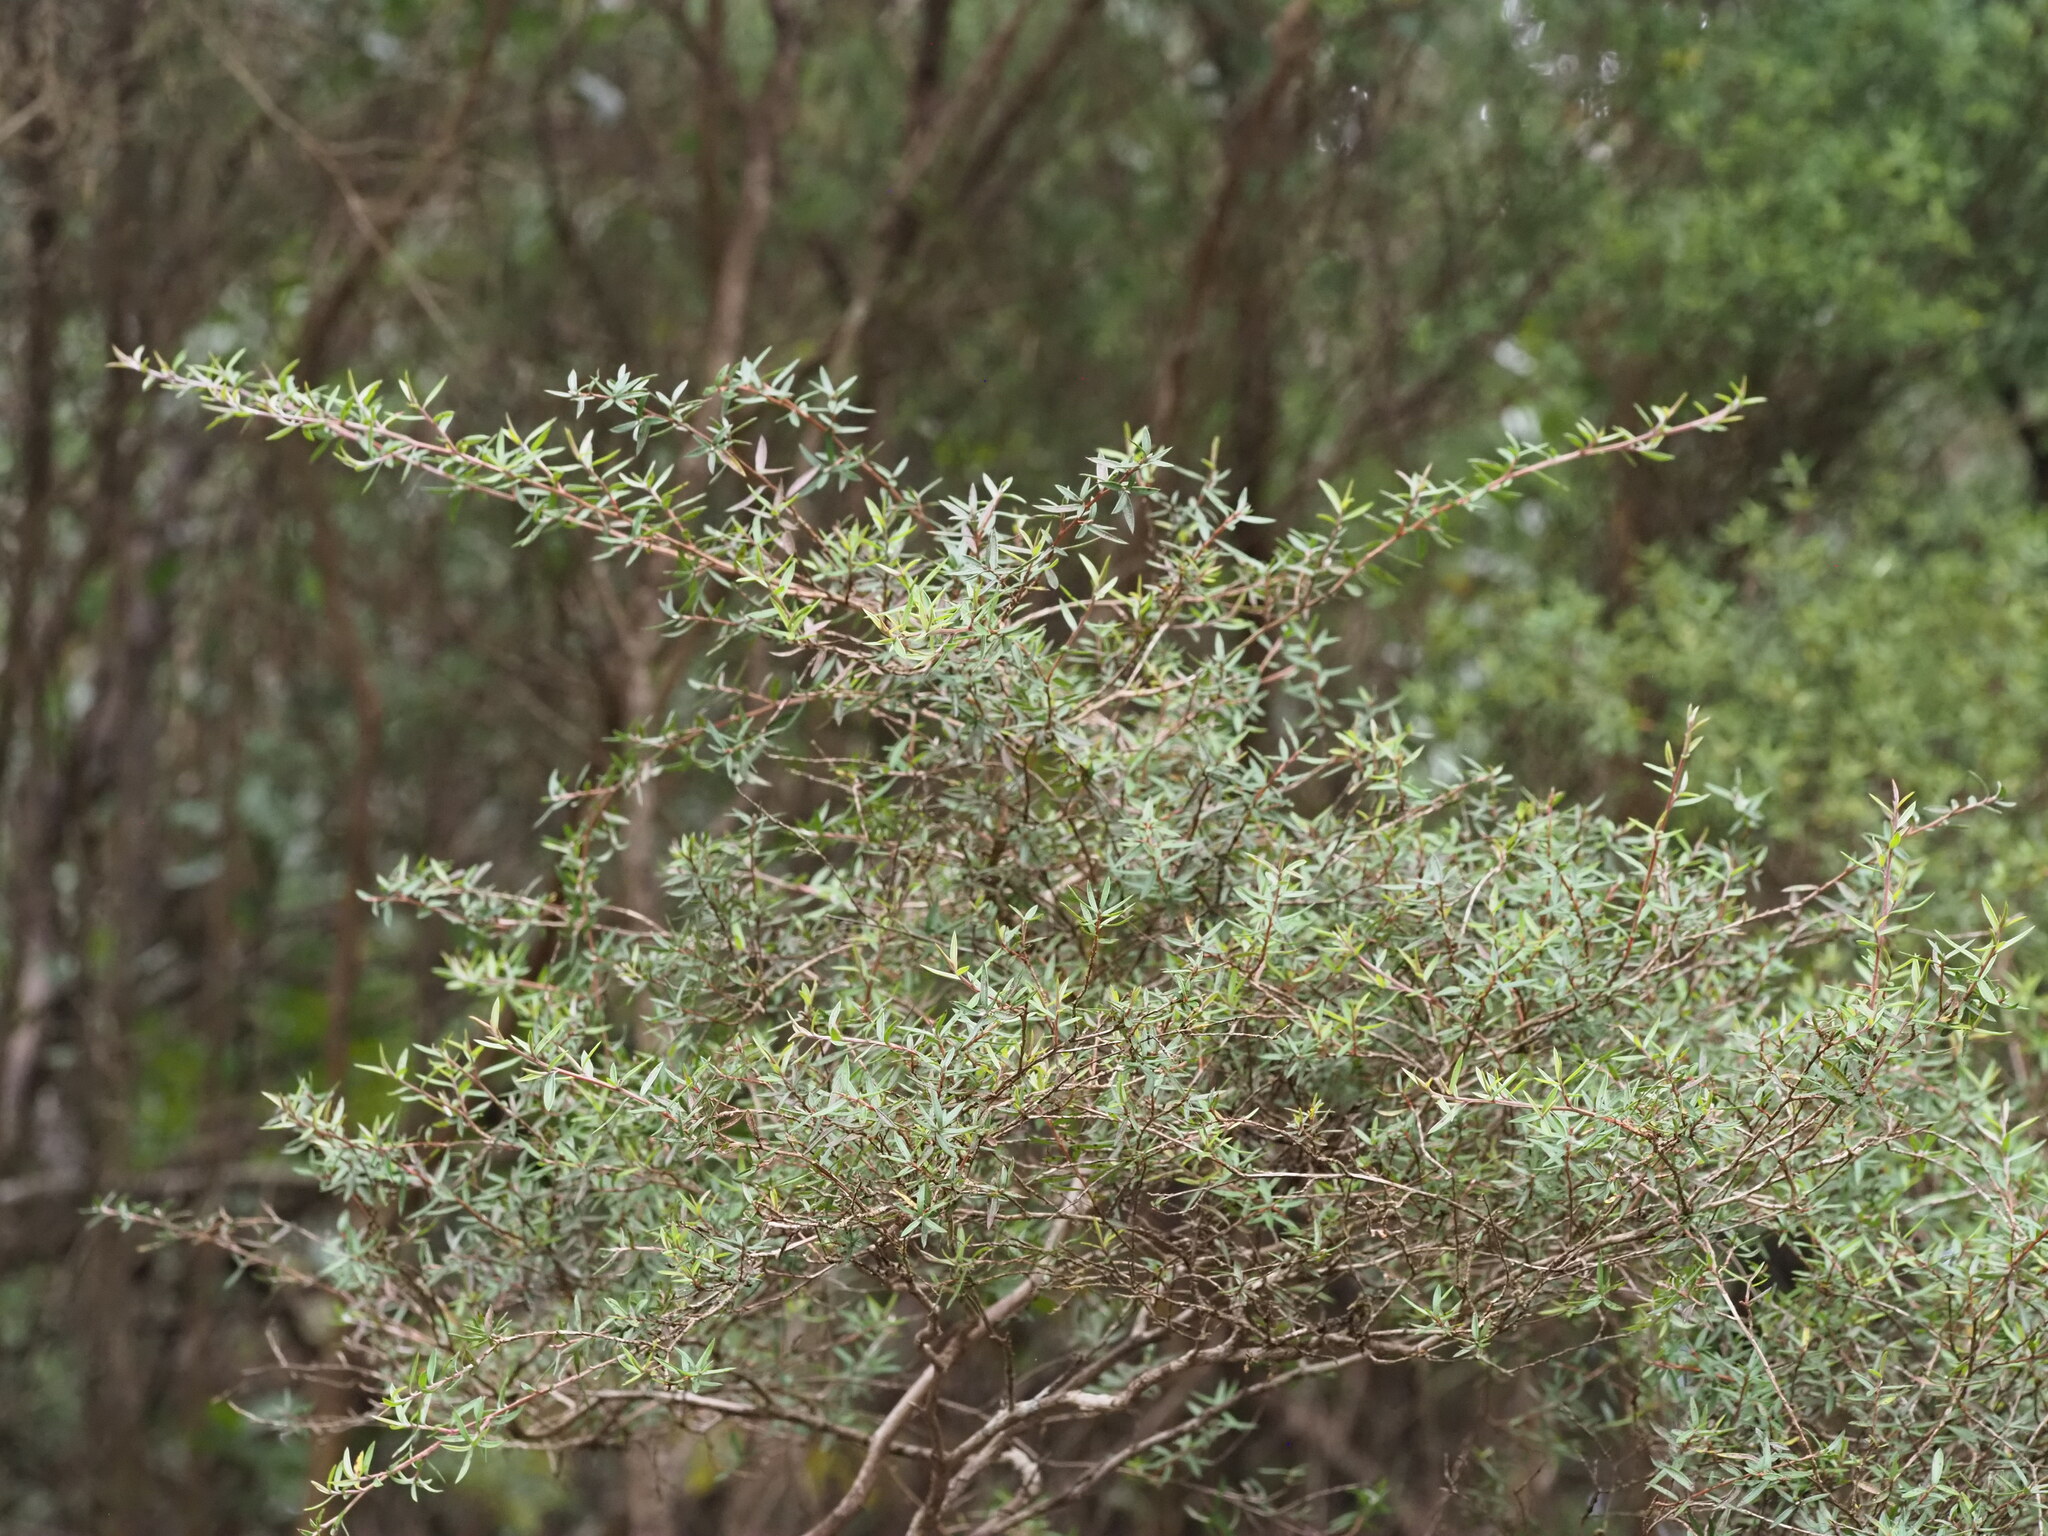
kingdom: Plantae
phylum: Tracheophyta
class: Magnoliopsida
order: Myrtales
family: Myrtaceae
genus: Leptospermum
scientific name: Leptospermum scoparium
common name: Broom tea-tree
